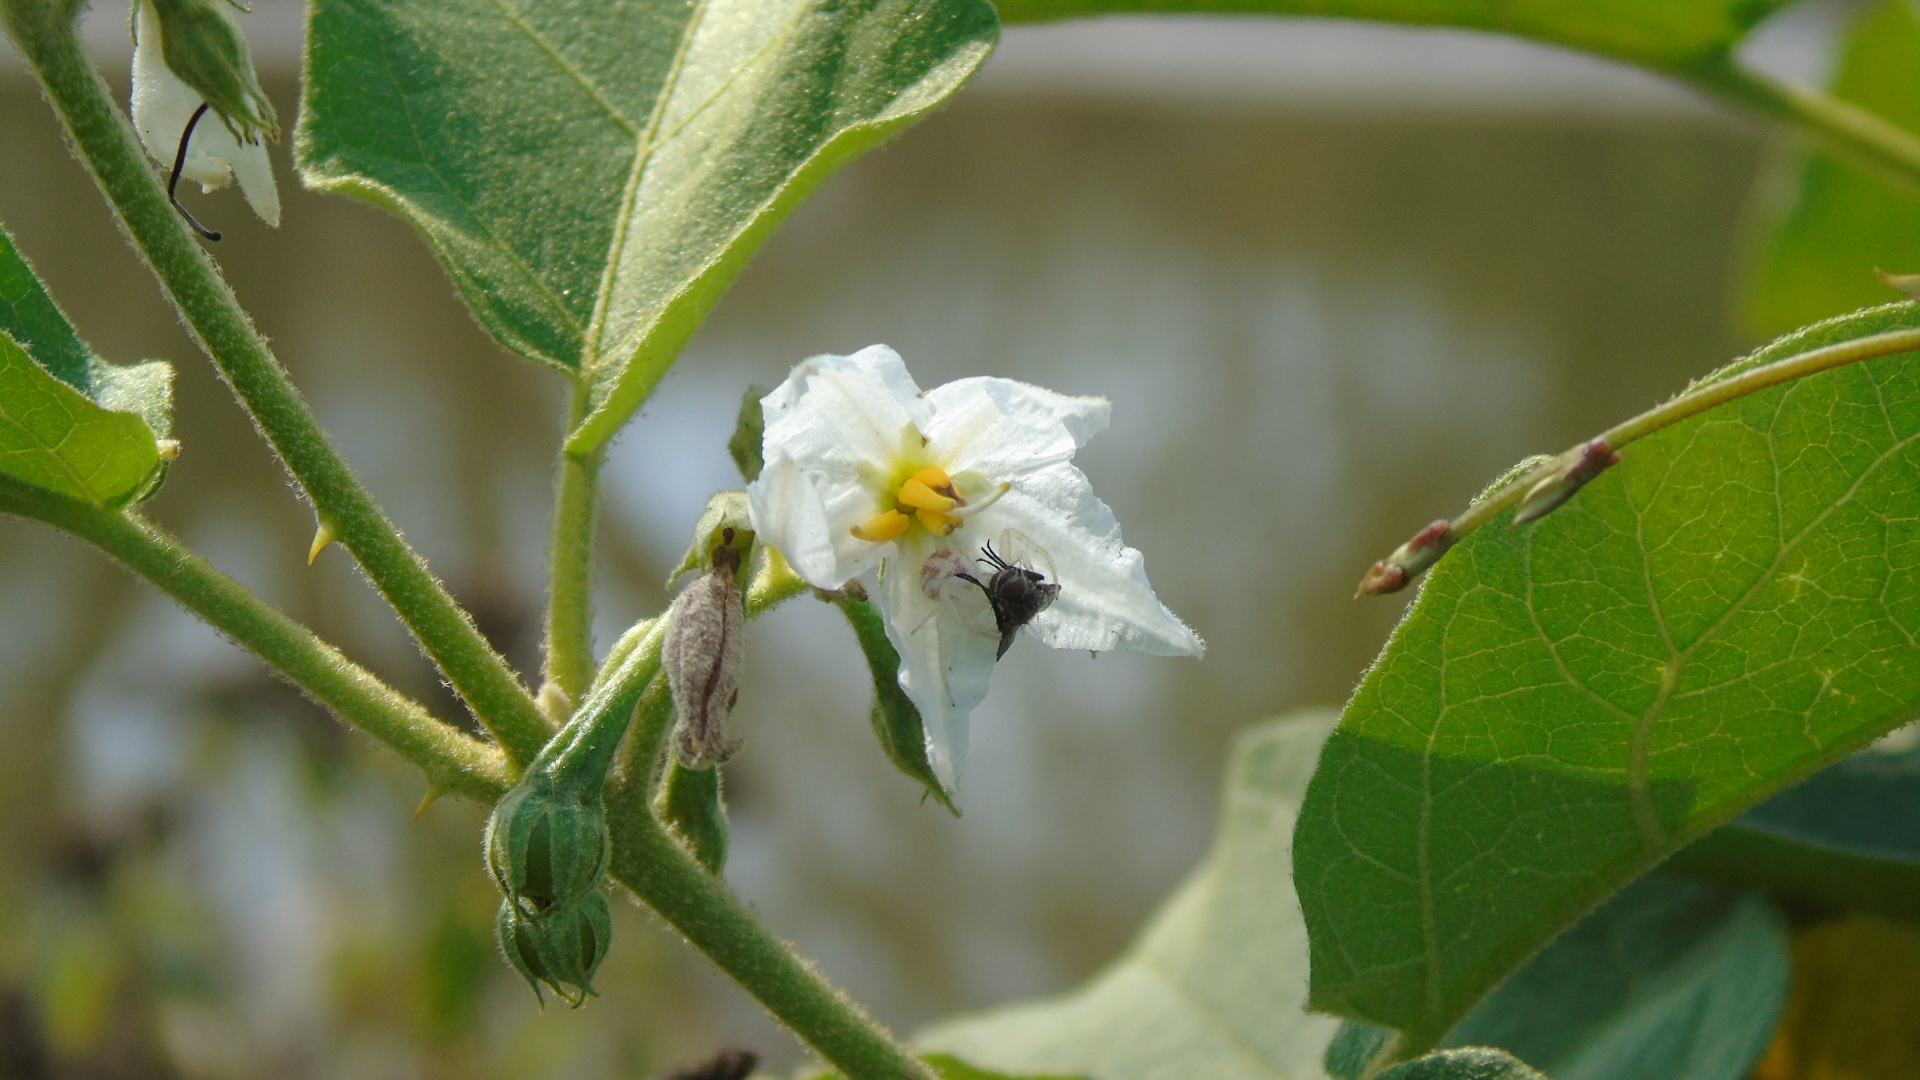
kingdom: Animalia
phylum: Arthropoda
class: Arachnida
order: Araneae
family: Thomisidae
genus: Mecaphesa
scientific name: Mecaphesa
